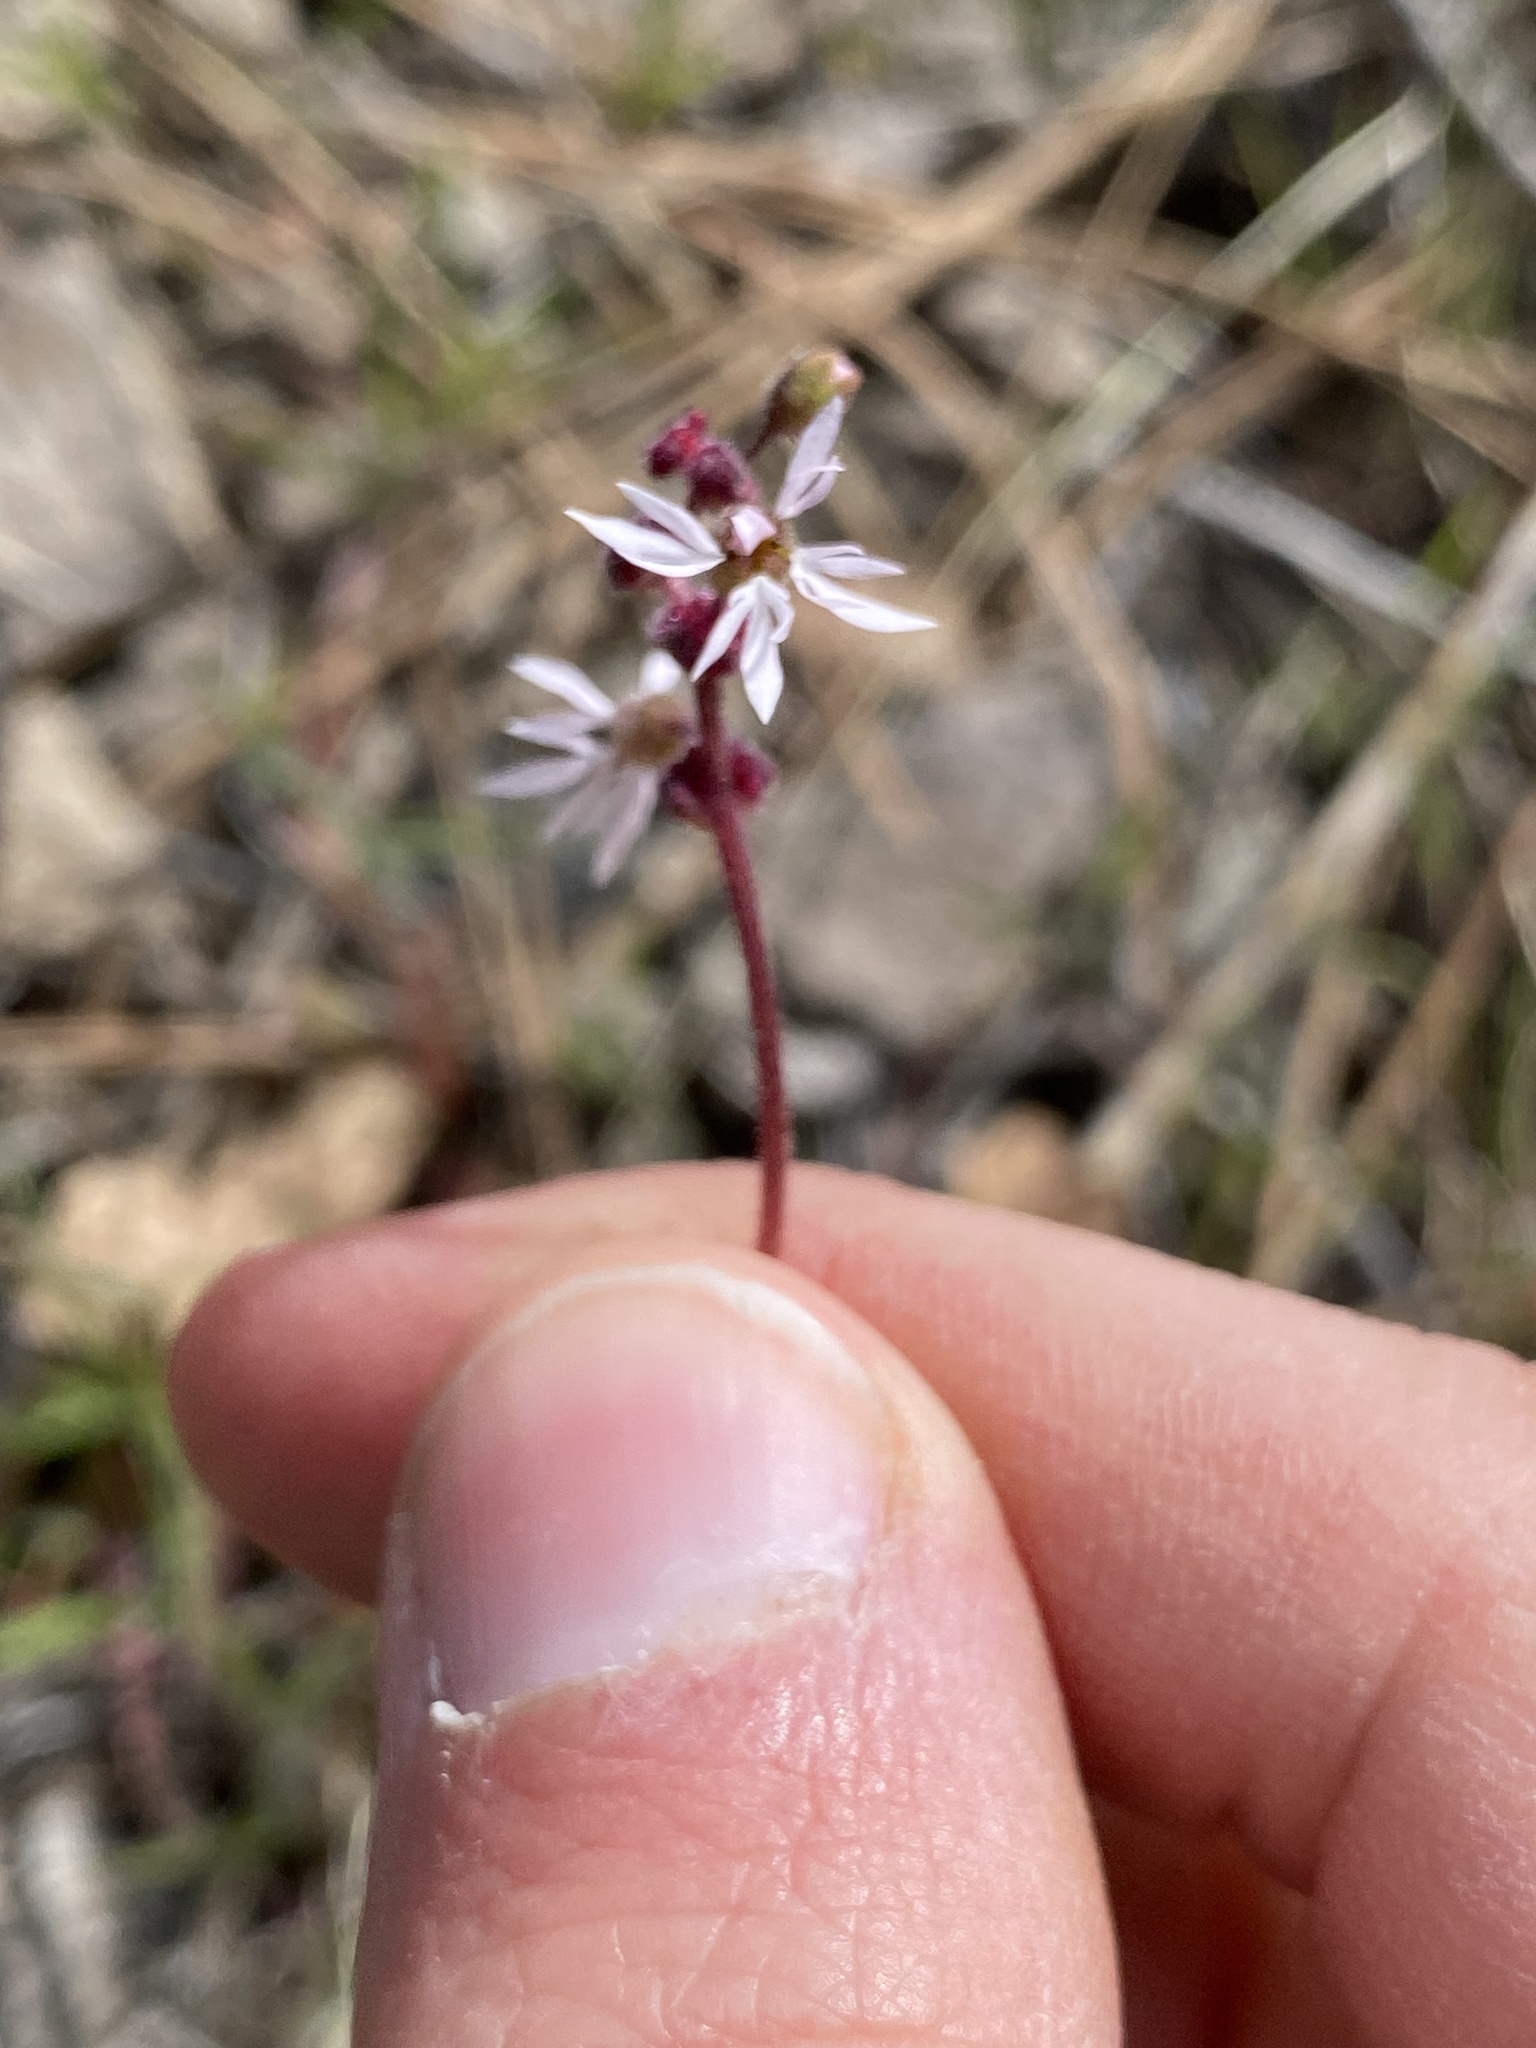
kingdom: Plantae
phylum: Tracheophyta
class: Magnoliopsida
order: Saxifragales
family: Saxifragaceae
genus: Lithophragma
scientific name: Lithophragma glabrum
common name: Bulbous prairie-star
